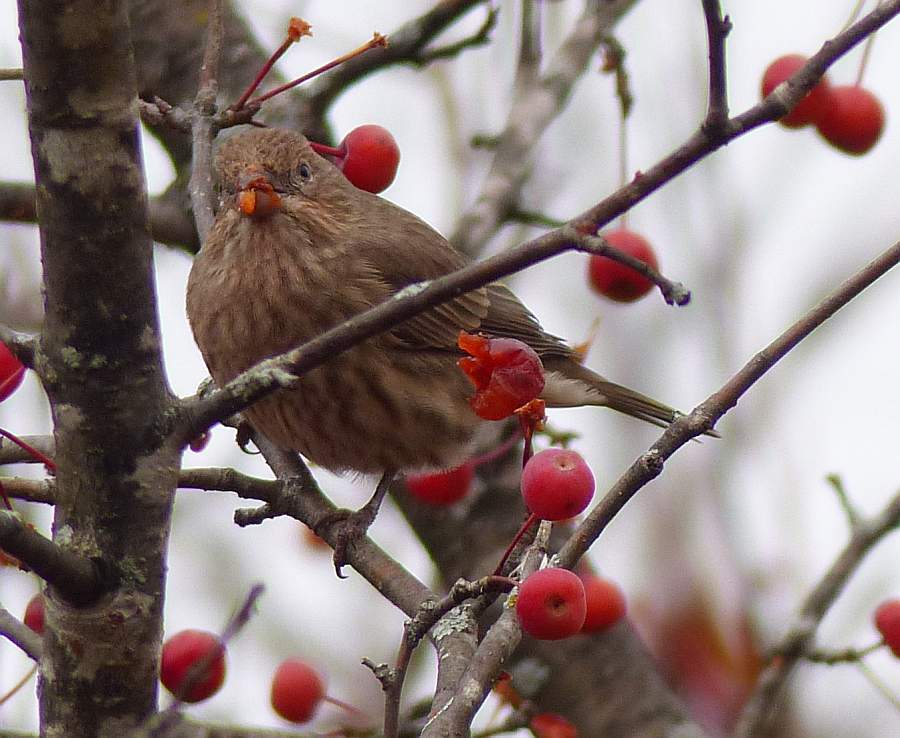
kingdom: Animalia
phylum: Chordata
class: Aves
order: Passeriformes
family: Fringillidae
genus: Haemorhous
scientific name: Haemorhous mexicanus
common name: House finch
